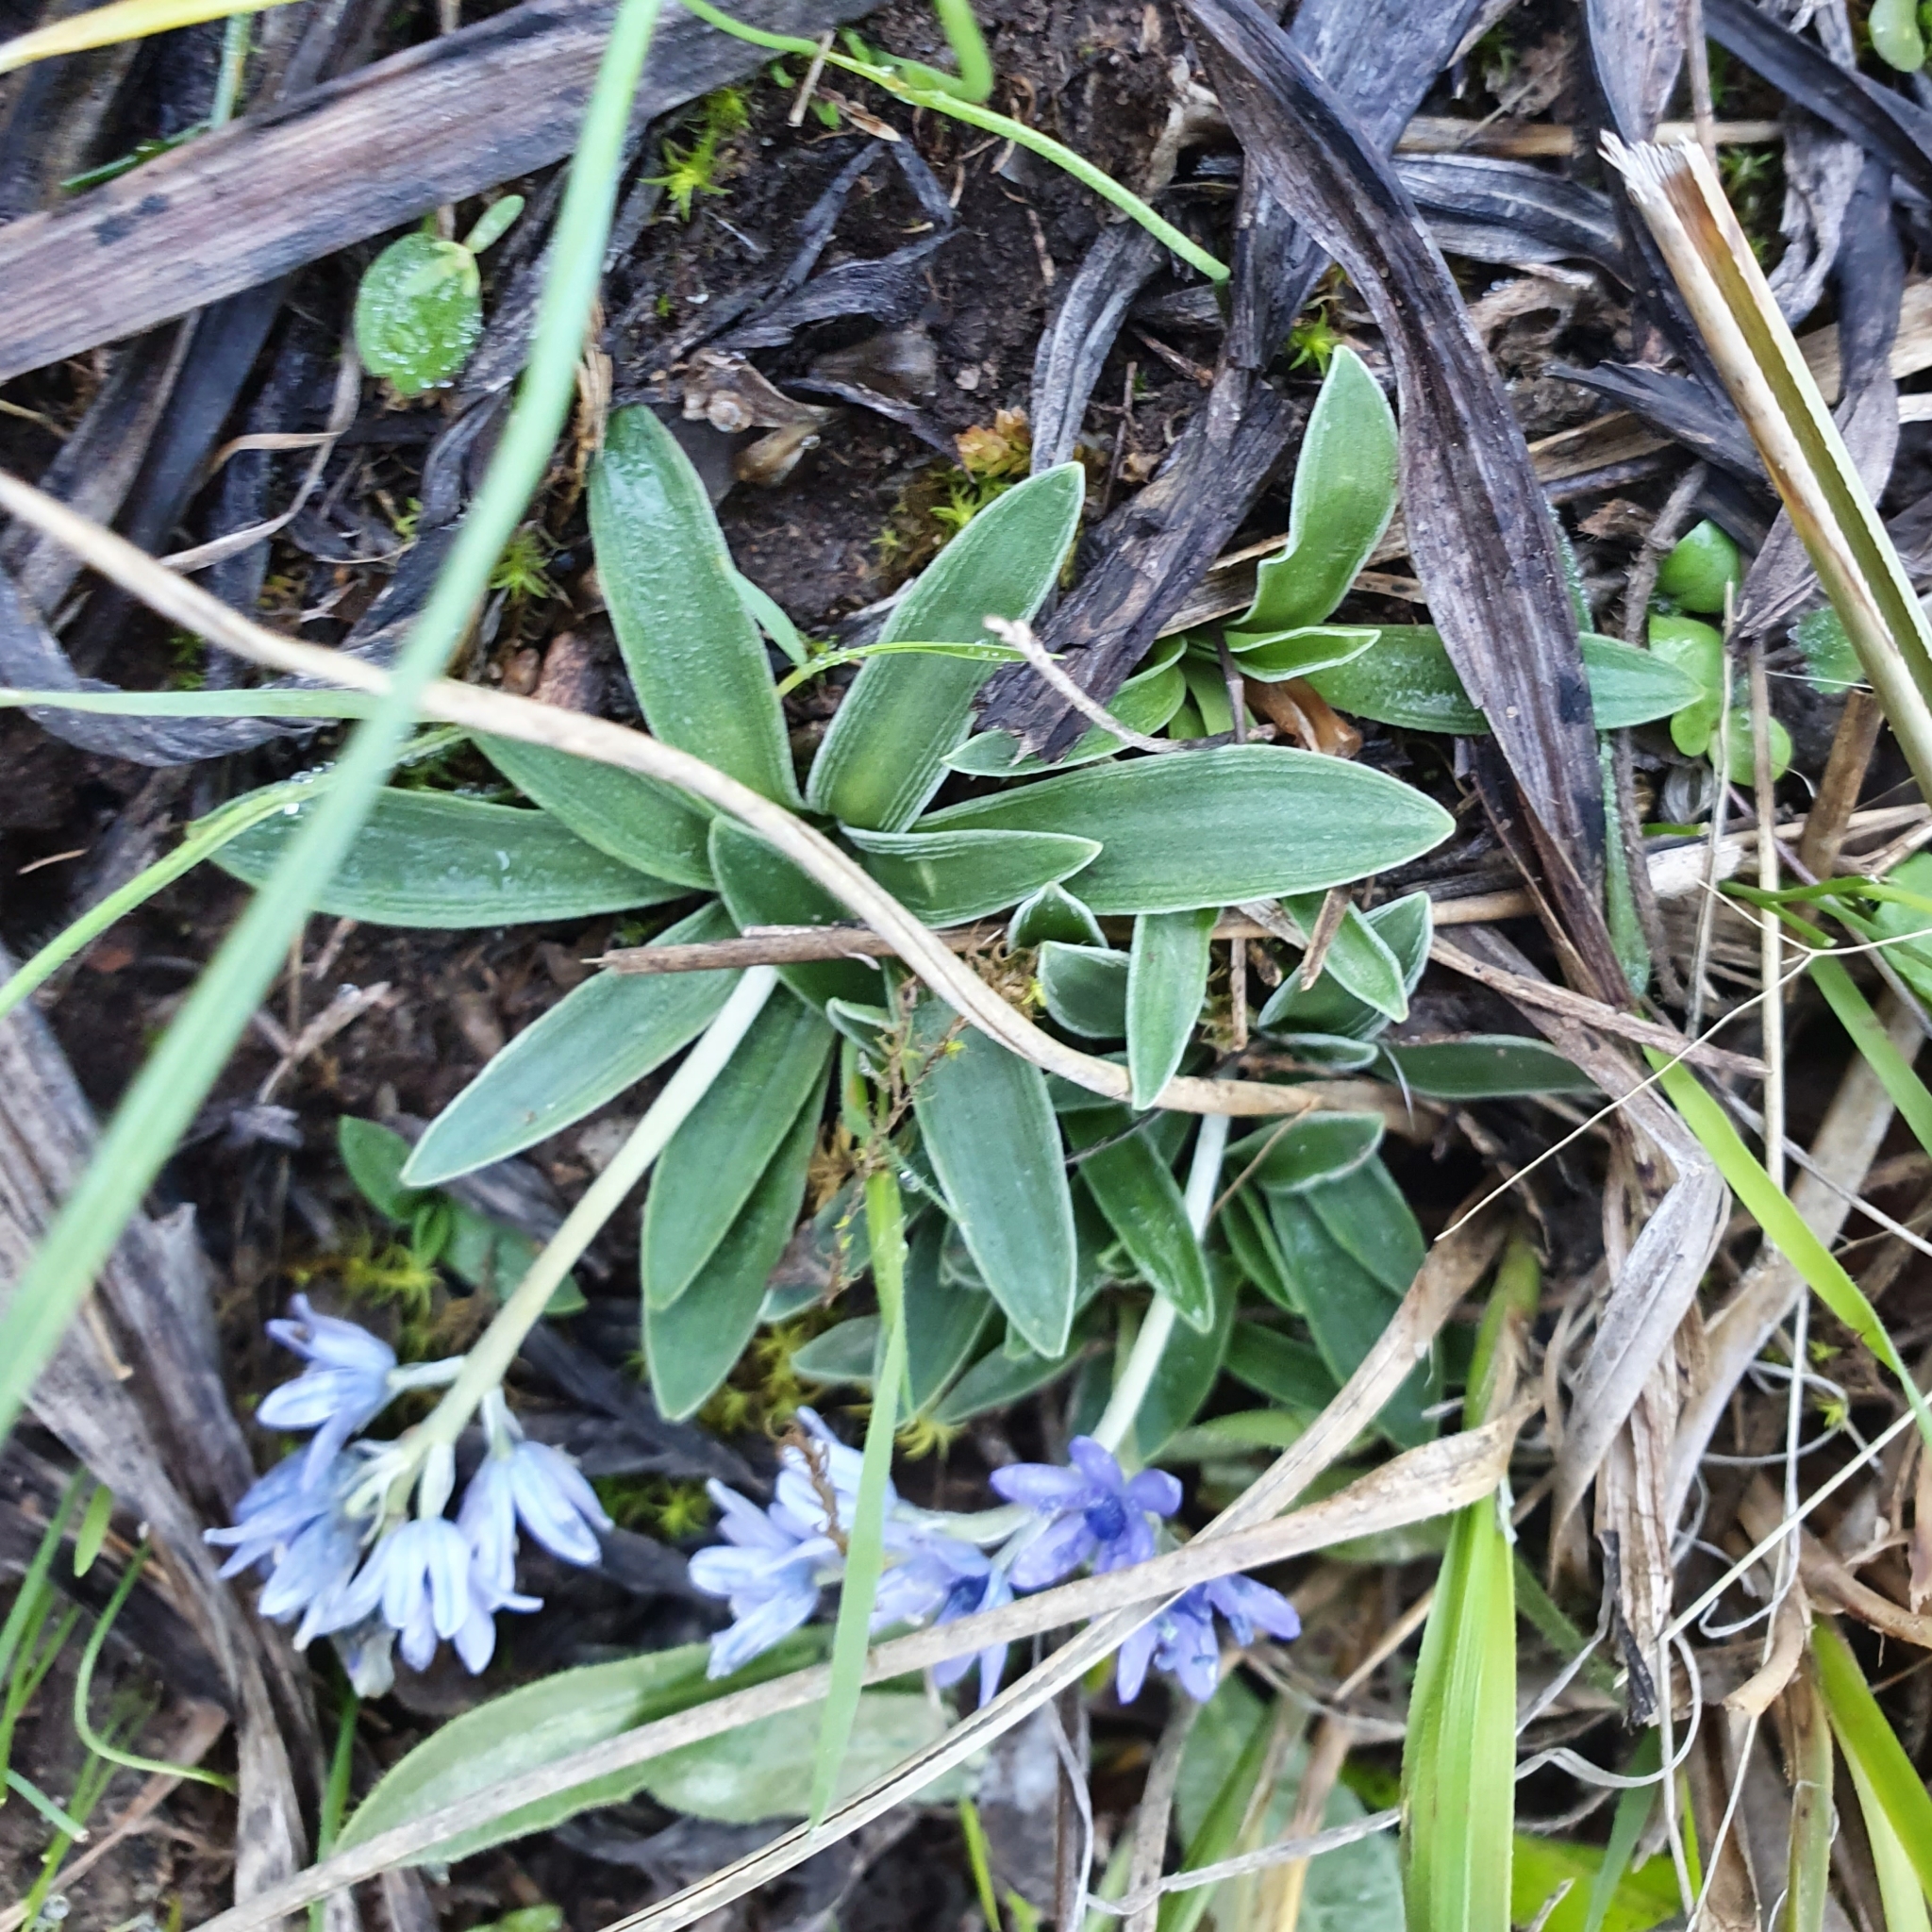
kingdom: Plantae
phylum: Tracheophyta
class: Liliopsida
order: Asparagales
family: Asparagaceae
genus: Hyacinthoides
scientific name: Hyacinthoides lingulata
